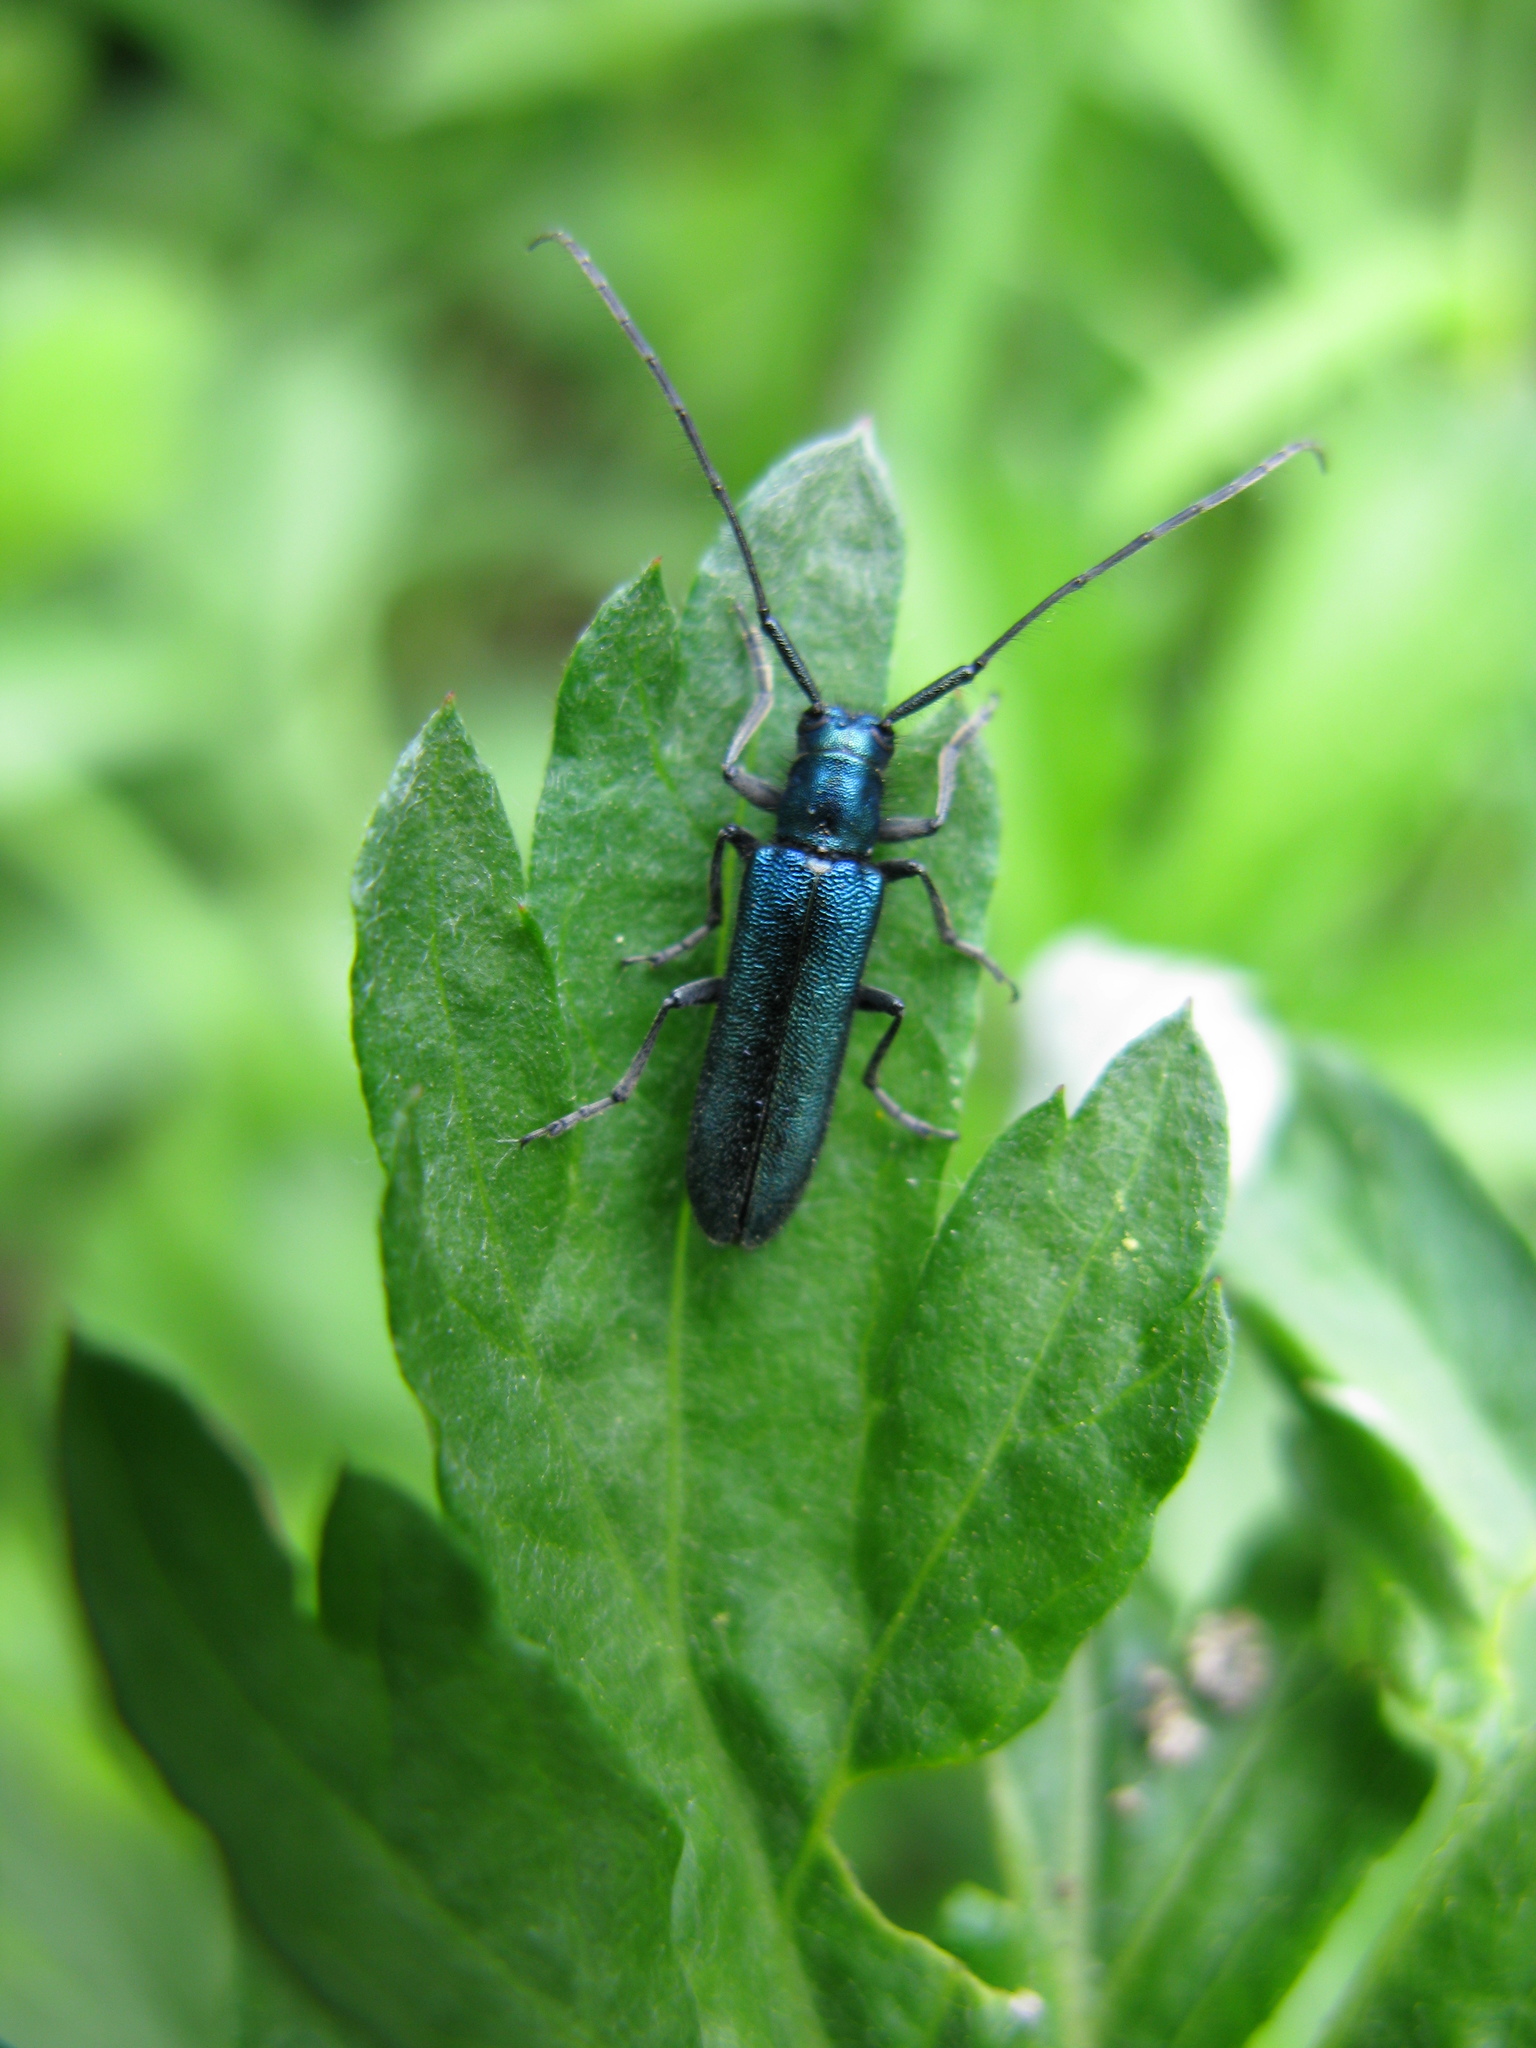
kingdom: Animalia
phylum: Arthropoda
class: Insecta
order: Coleoptera
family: Cerambycidae
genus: Agapanthia
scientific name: Agapanthia intermedia
